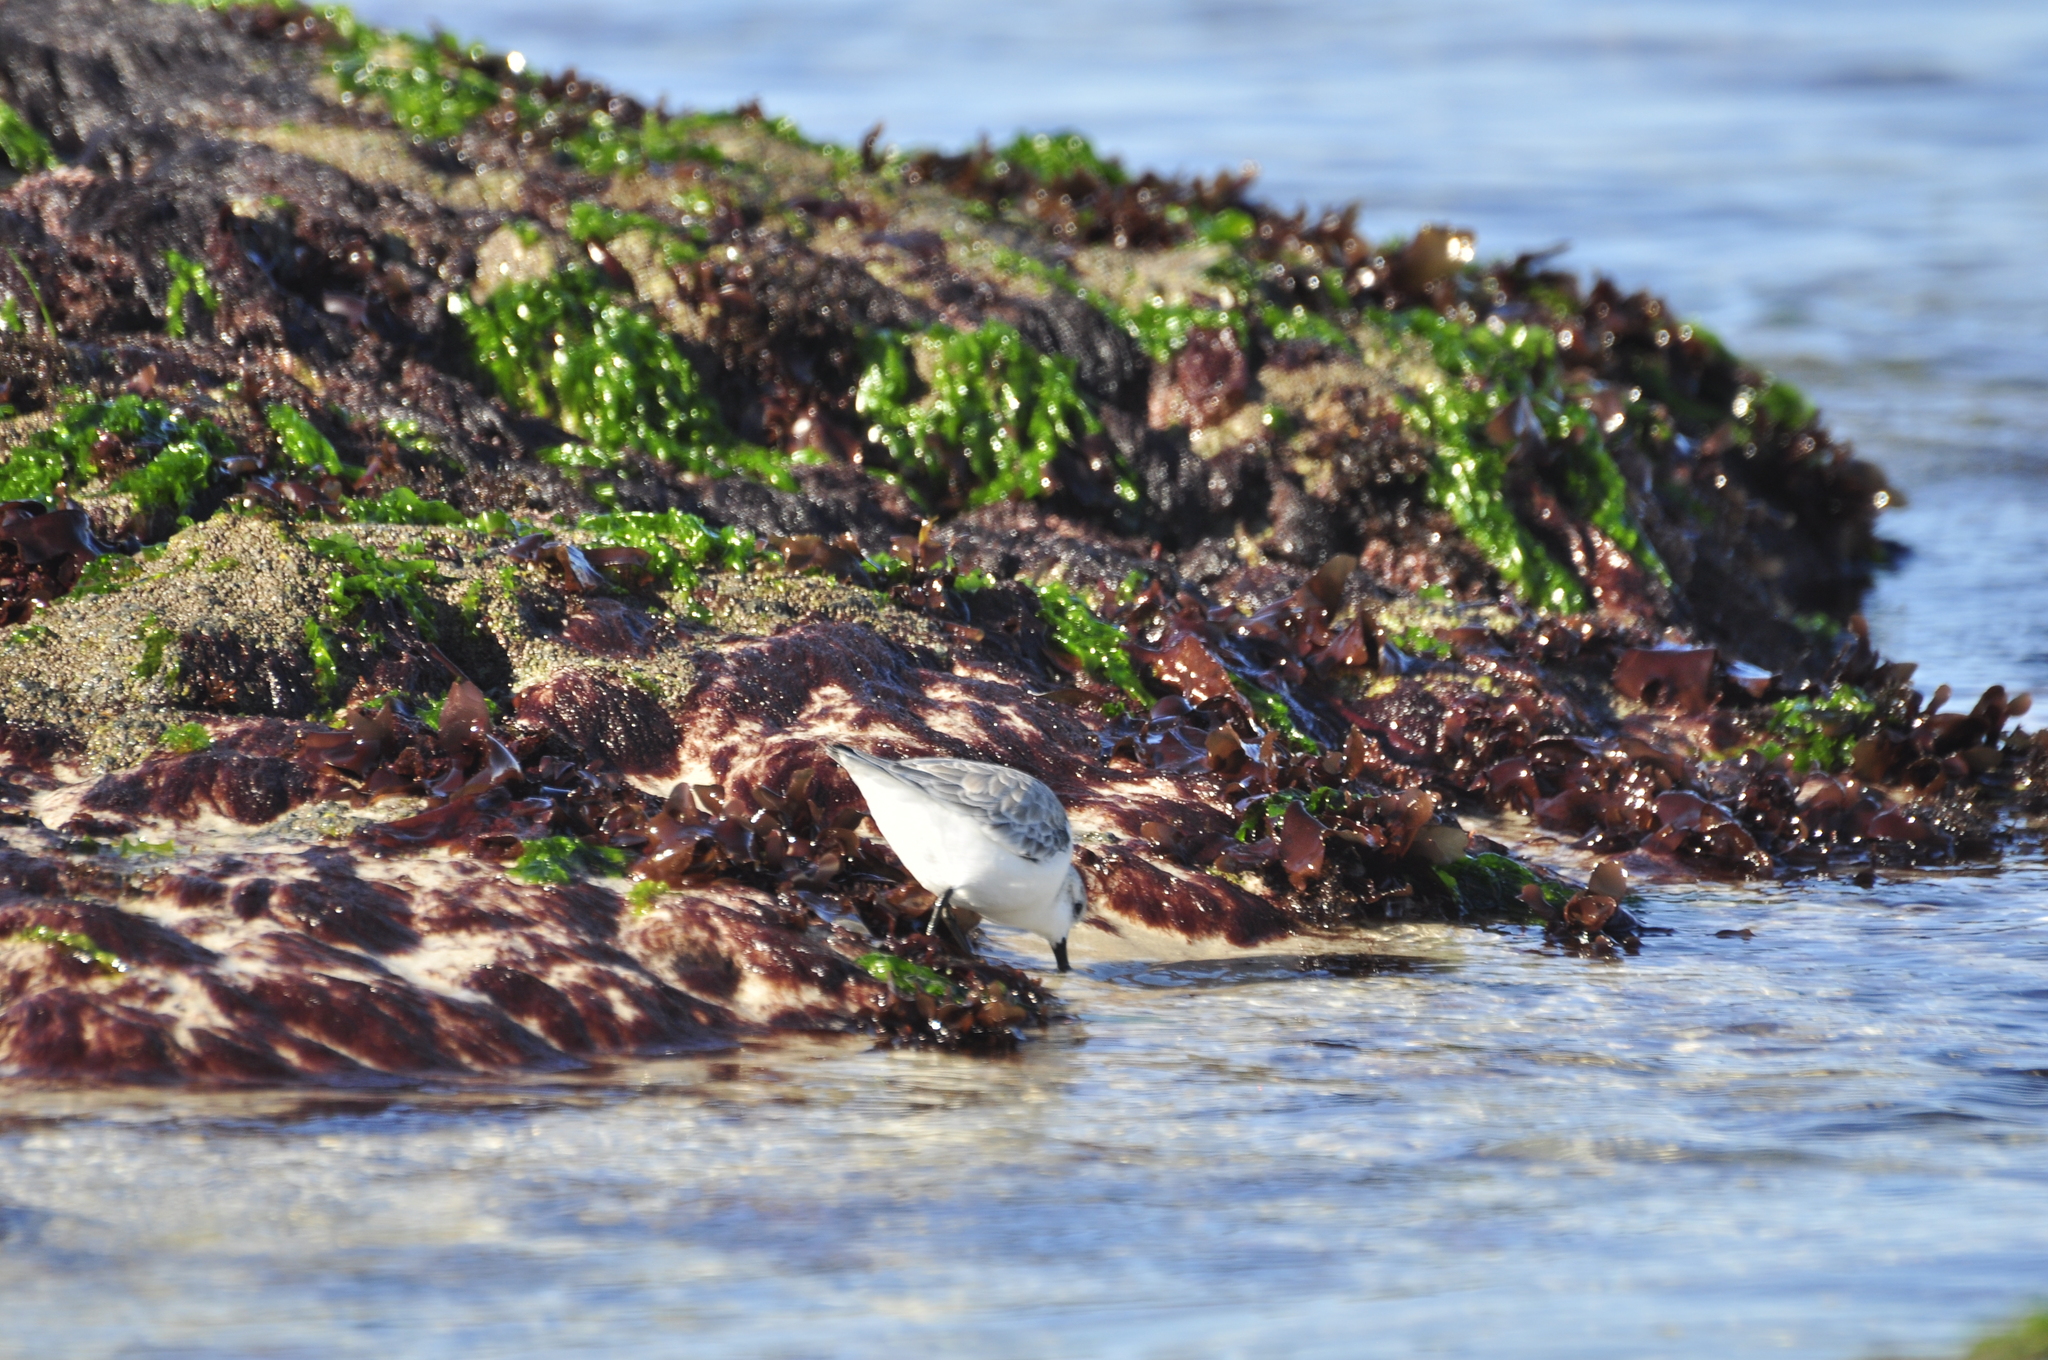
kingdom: Animalia
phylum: Chordata
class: Aves
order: Charadriiformes
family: Scolopacidae
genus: Calidris
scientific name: Calidris alba
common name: Sanderling
